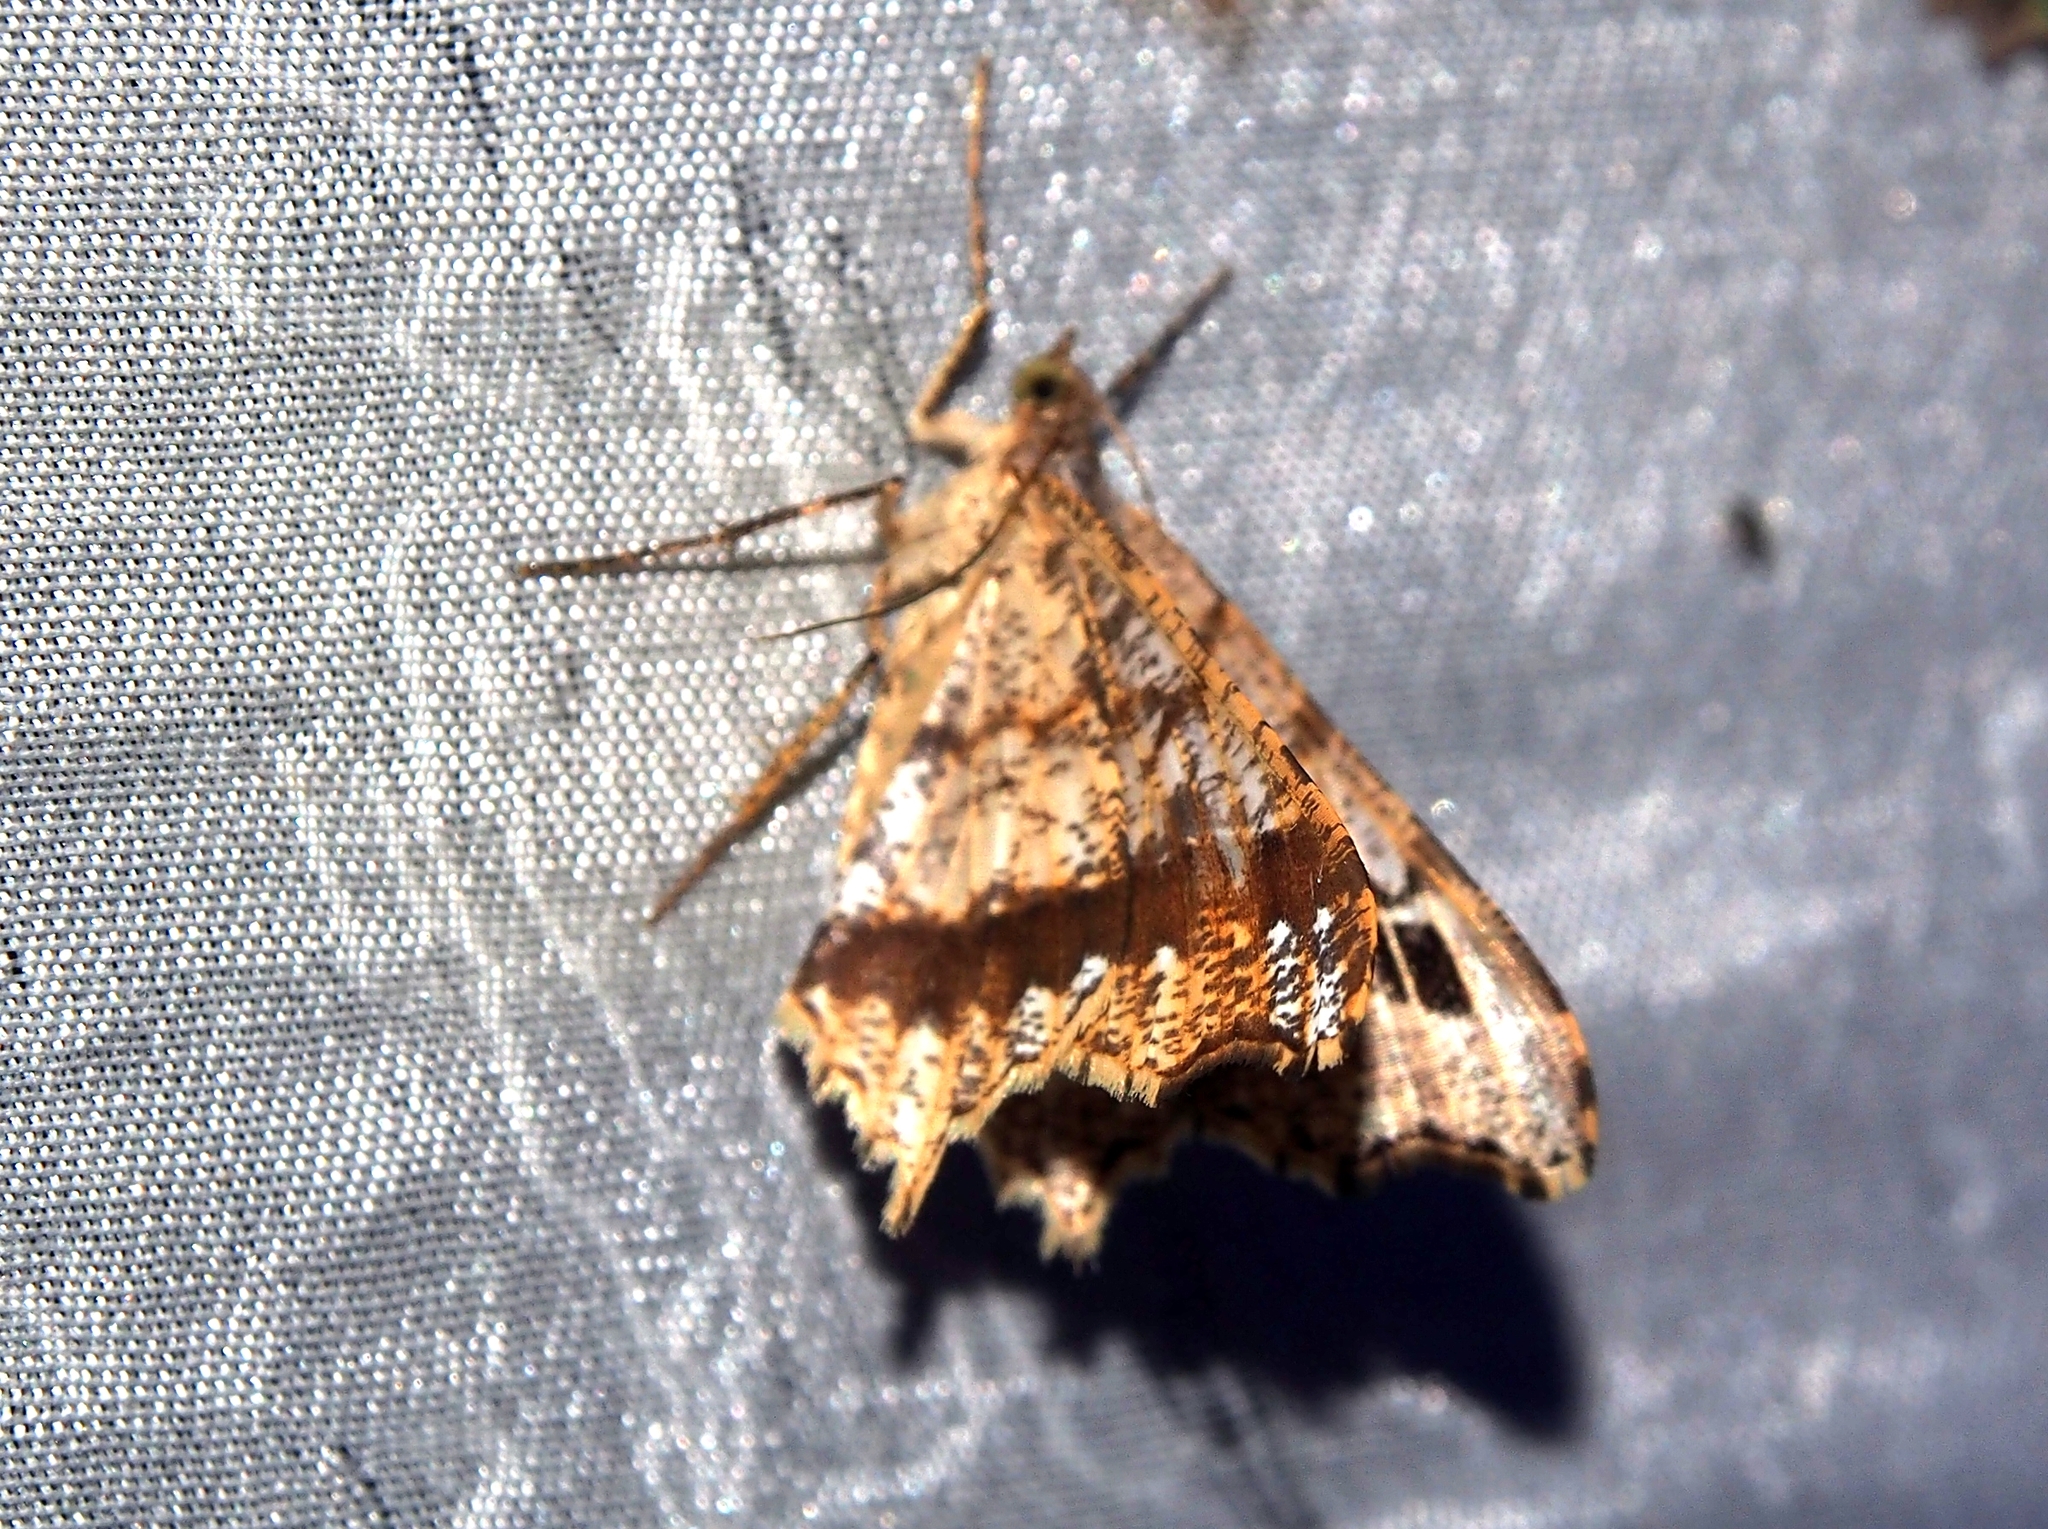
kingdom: Animalia
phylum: Arthropoda
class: Insecta
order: Lepidoptera
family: Geometridae
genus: Macaria
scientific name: Macaria regulata
